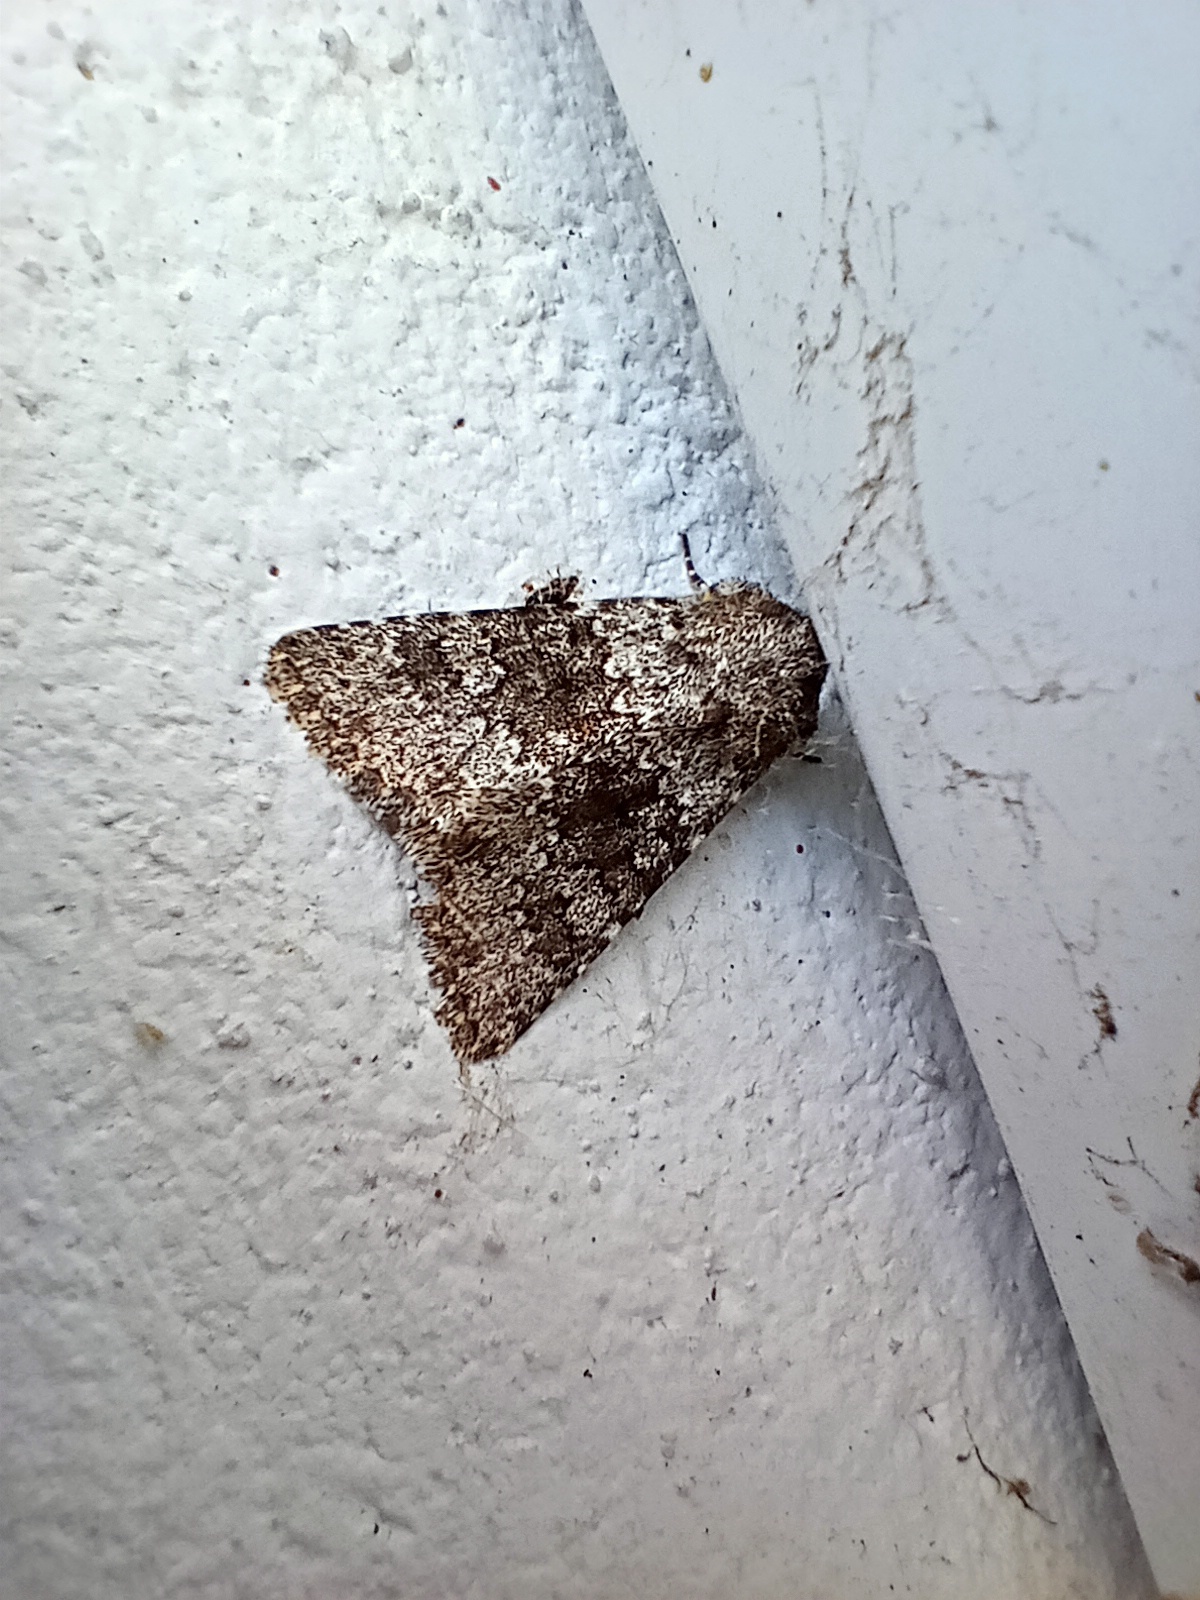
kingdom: Animalia
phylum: Arthropoda
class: Insecta
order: Lepidoptera
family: Noctuidae
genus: Hecatera
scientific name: Hecatera dysodea
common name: Small ranunculus
